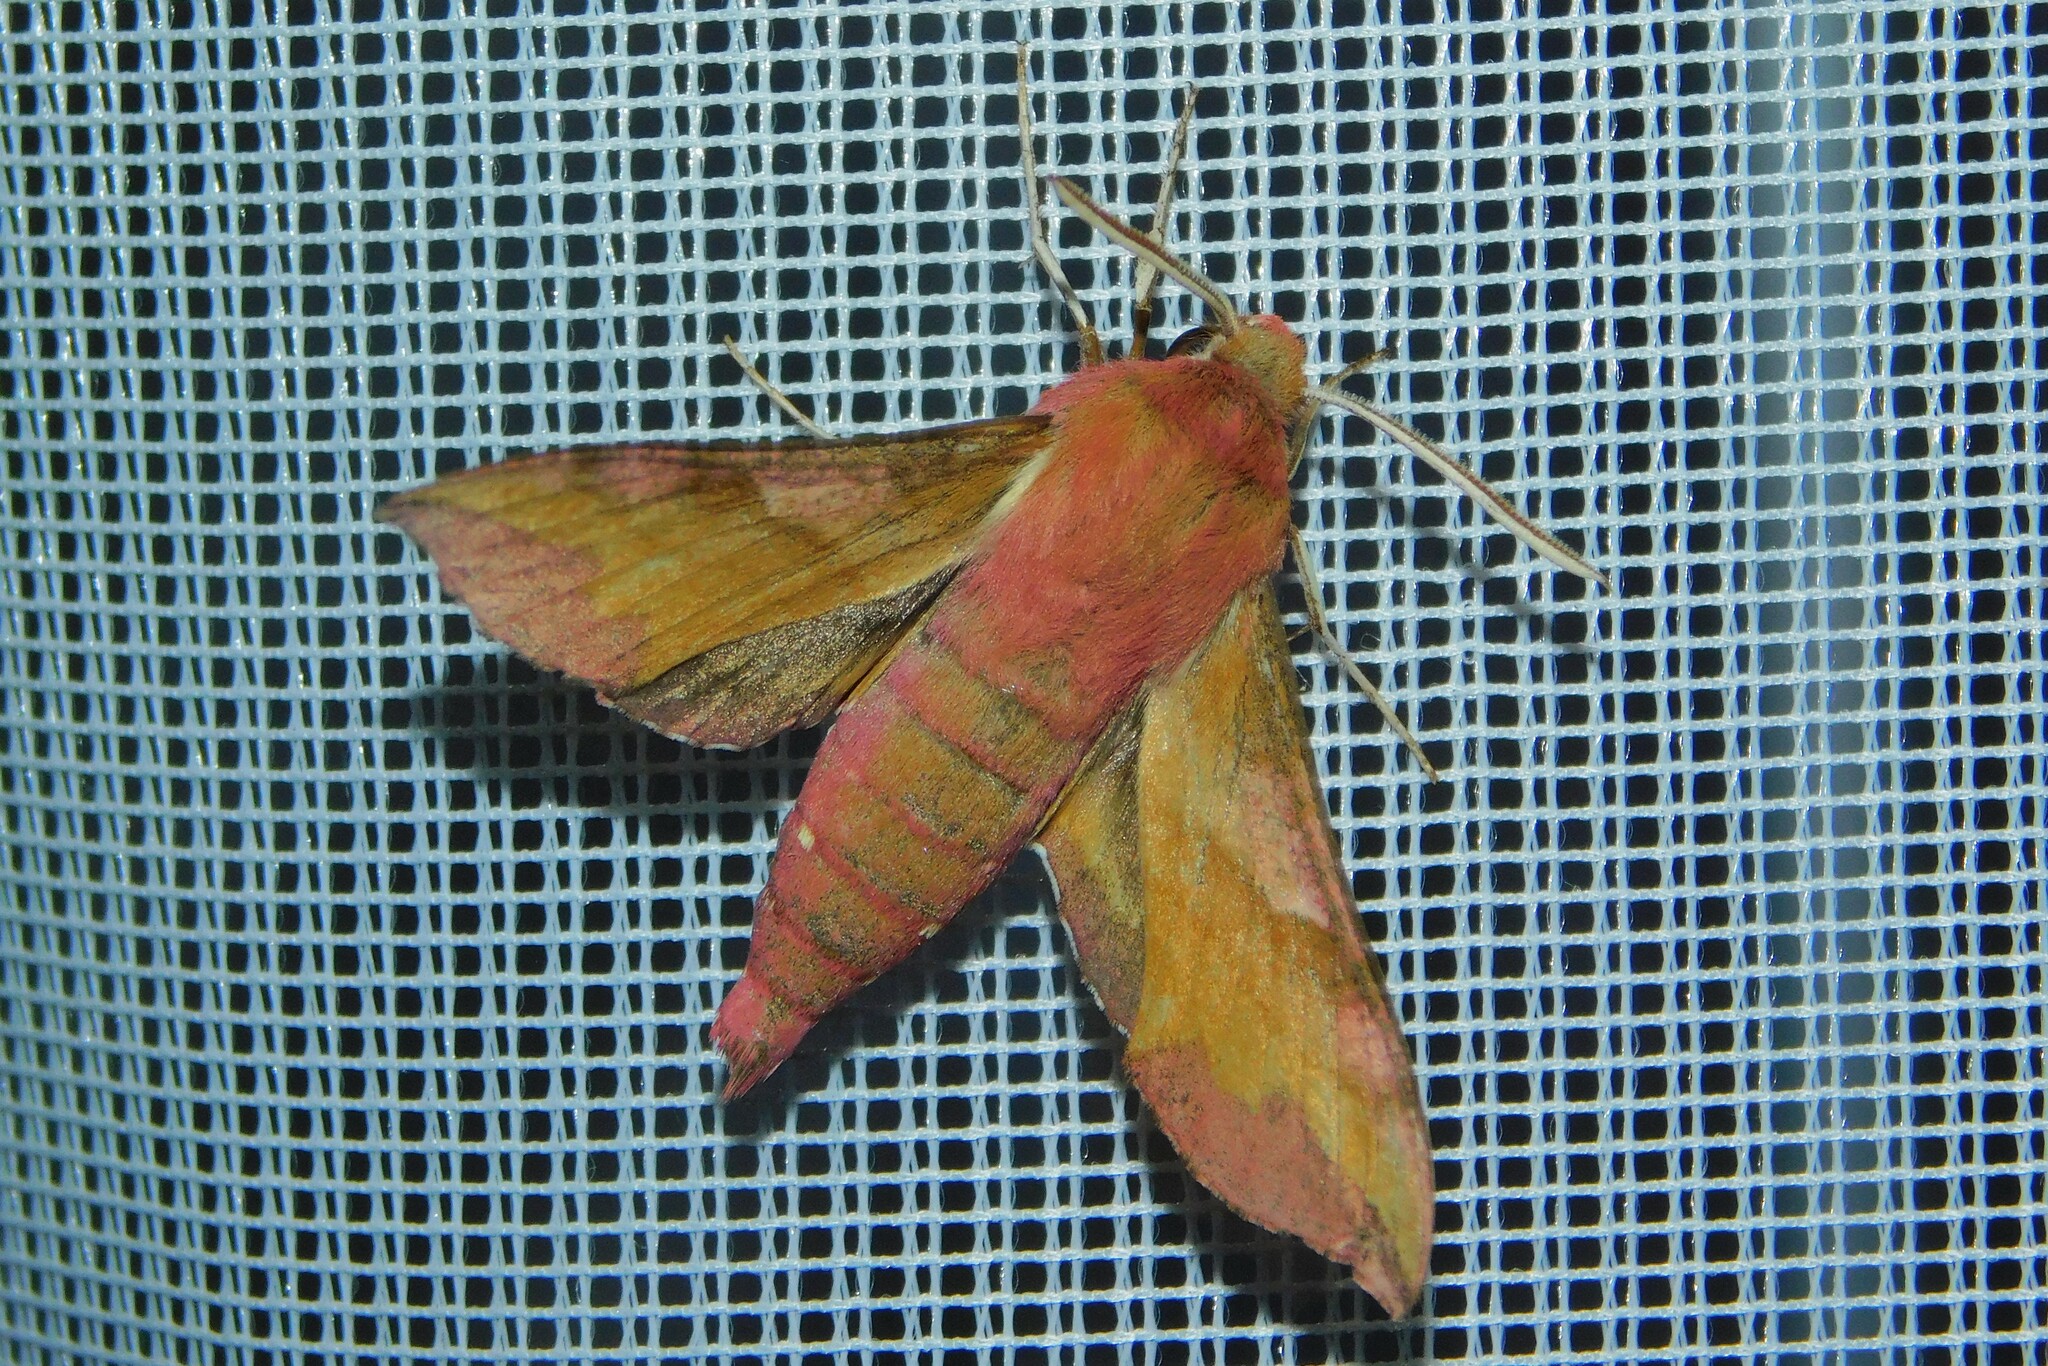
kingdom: Animalia
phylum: Arthropoda
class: Insecta
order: Lepidoptera
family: Sphingidae
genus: Deilephila
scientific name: Deilephila porcellus
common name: Small elephant hawk-moth
